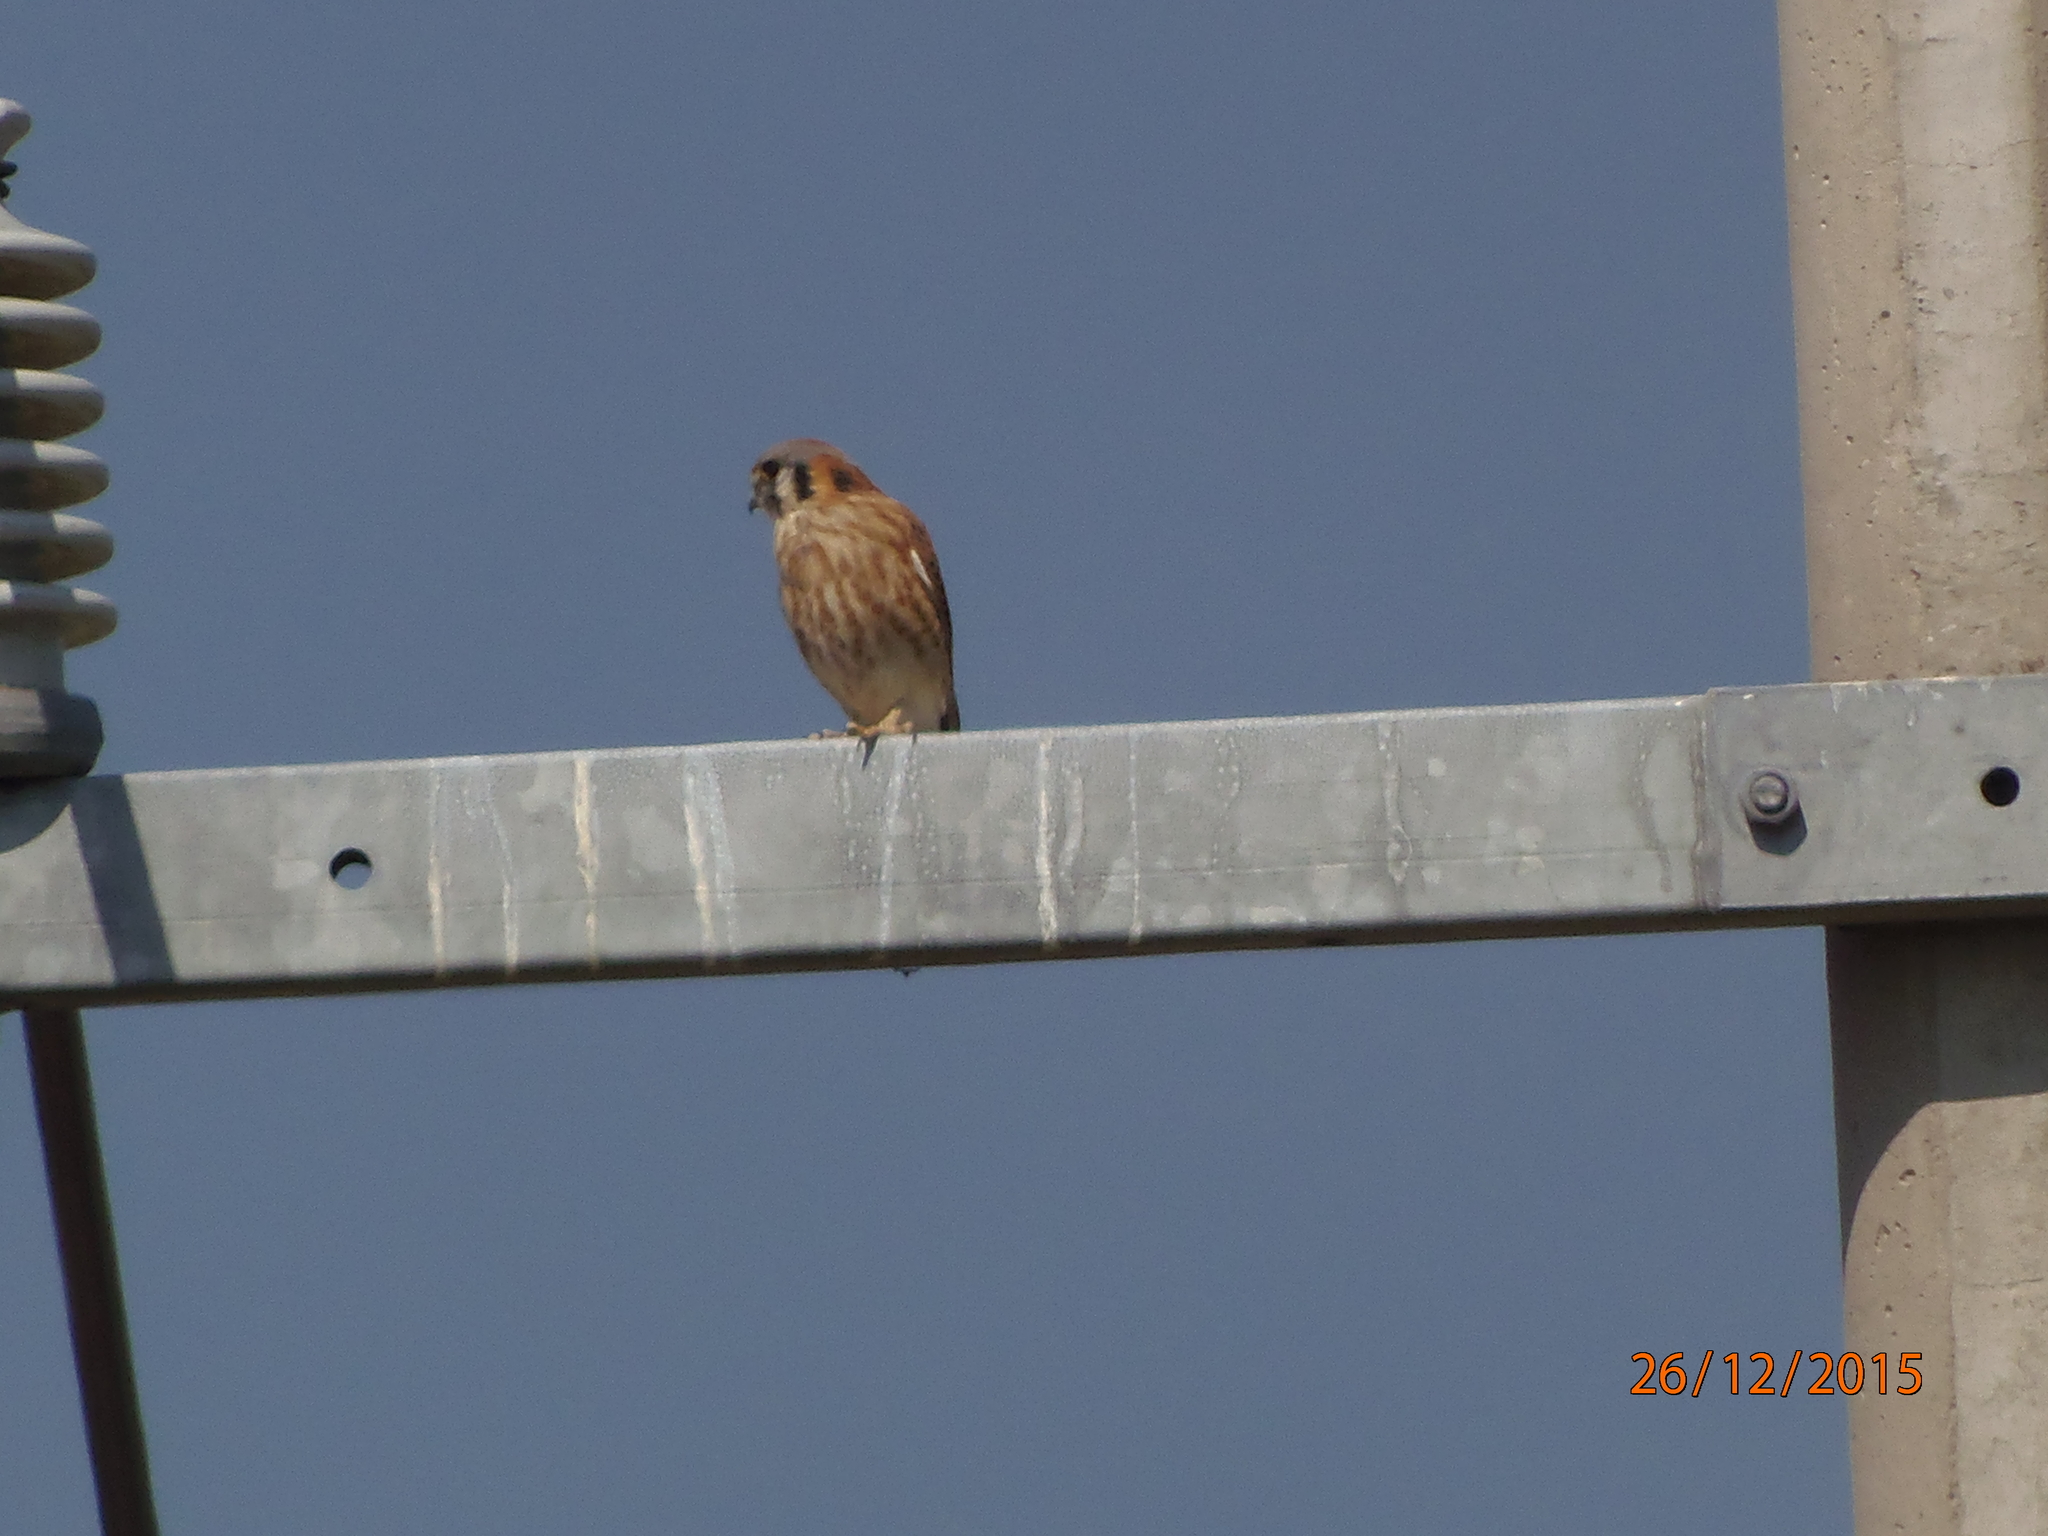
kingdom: Animalia
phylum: Chordata
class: Aves
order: Falconiformes
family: Falconidae
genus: Falco
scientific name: Falco sparverius
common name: American kestrel
